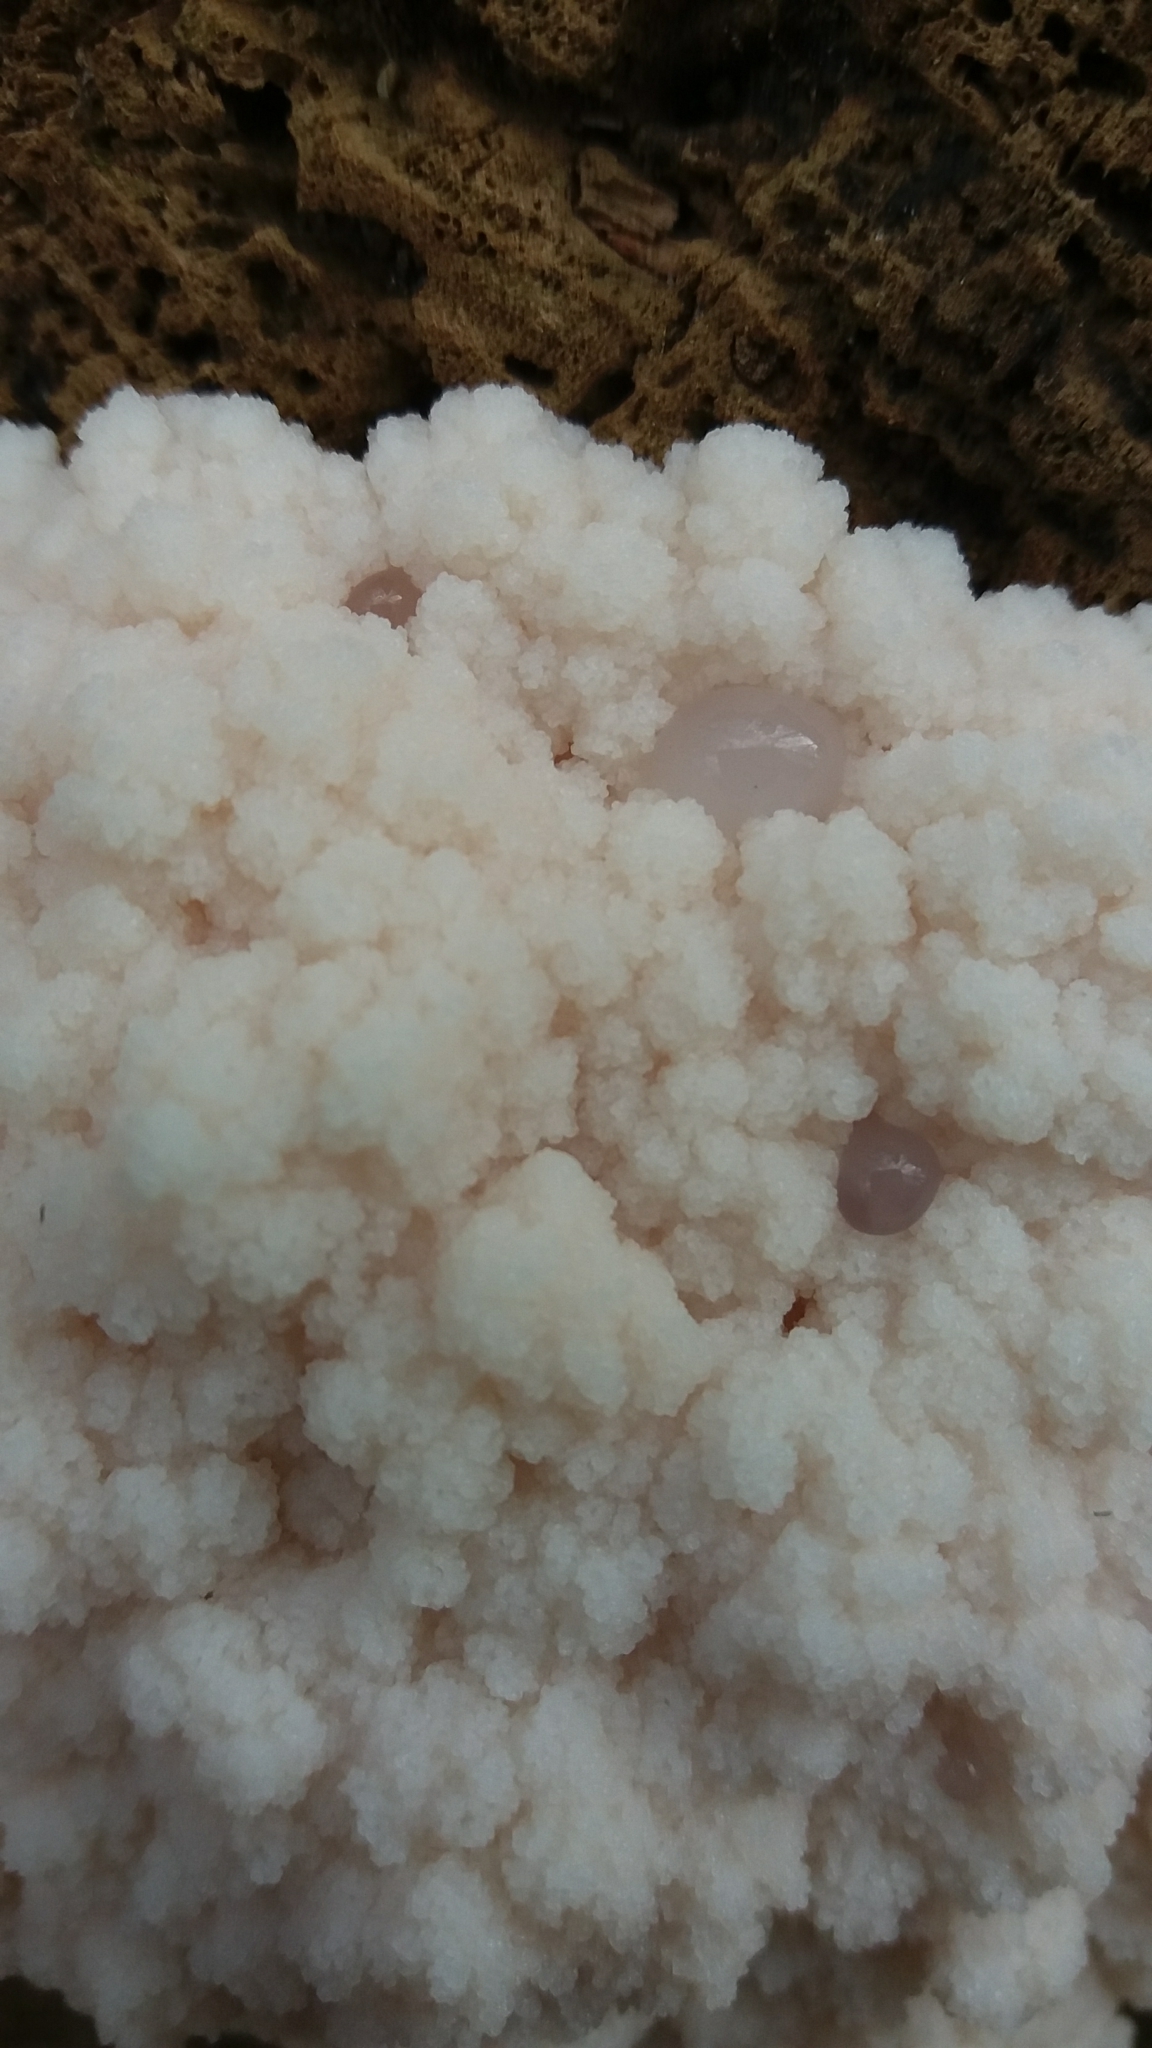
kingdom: Protozoa
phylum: Mycetozoa
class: Myxomycetes
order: Cribrariales
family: Tubiferaceae
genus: Reticularia
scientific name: Reticularia lycoperdon
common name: False puffball
